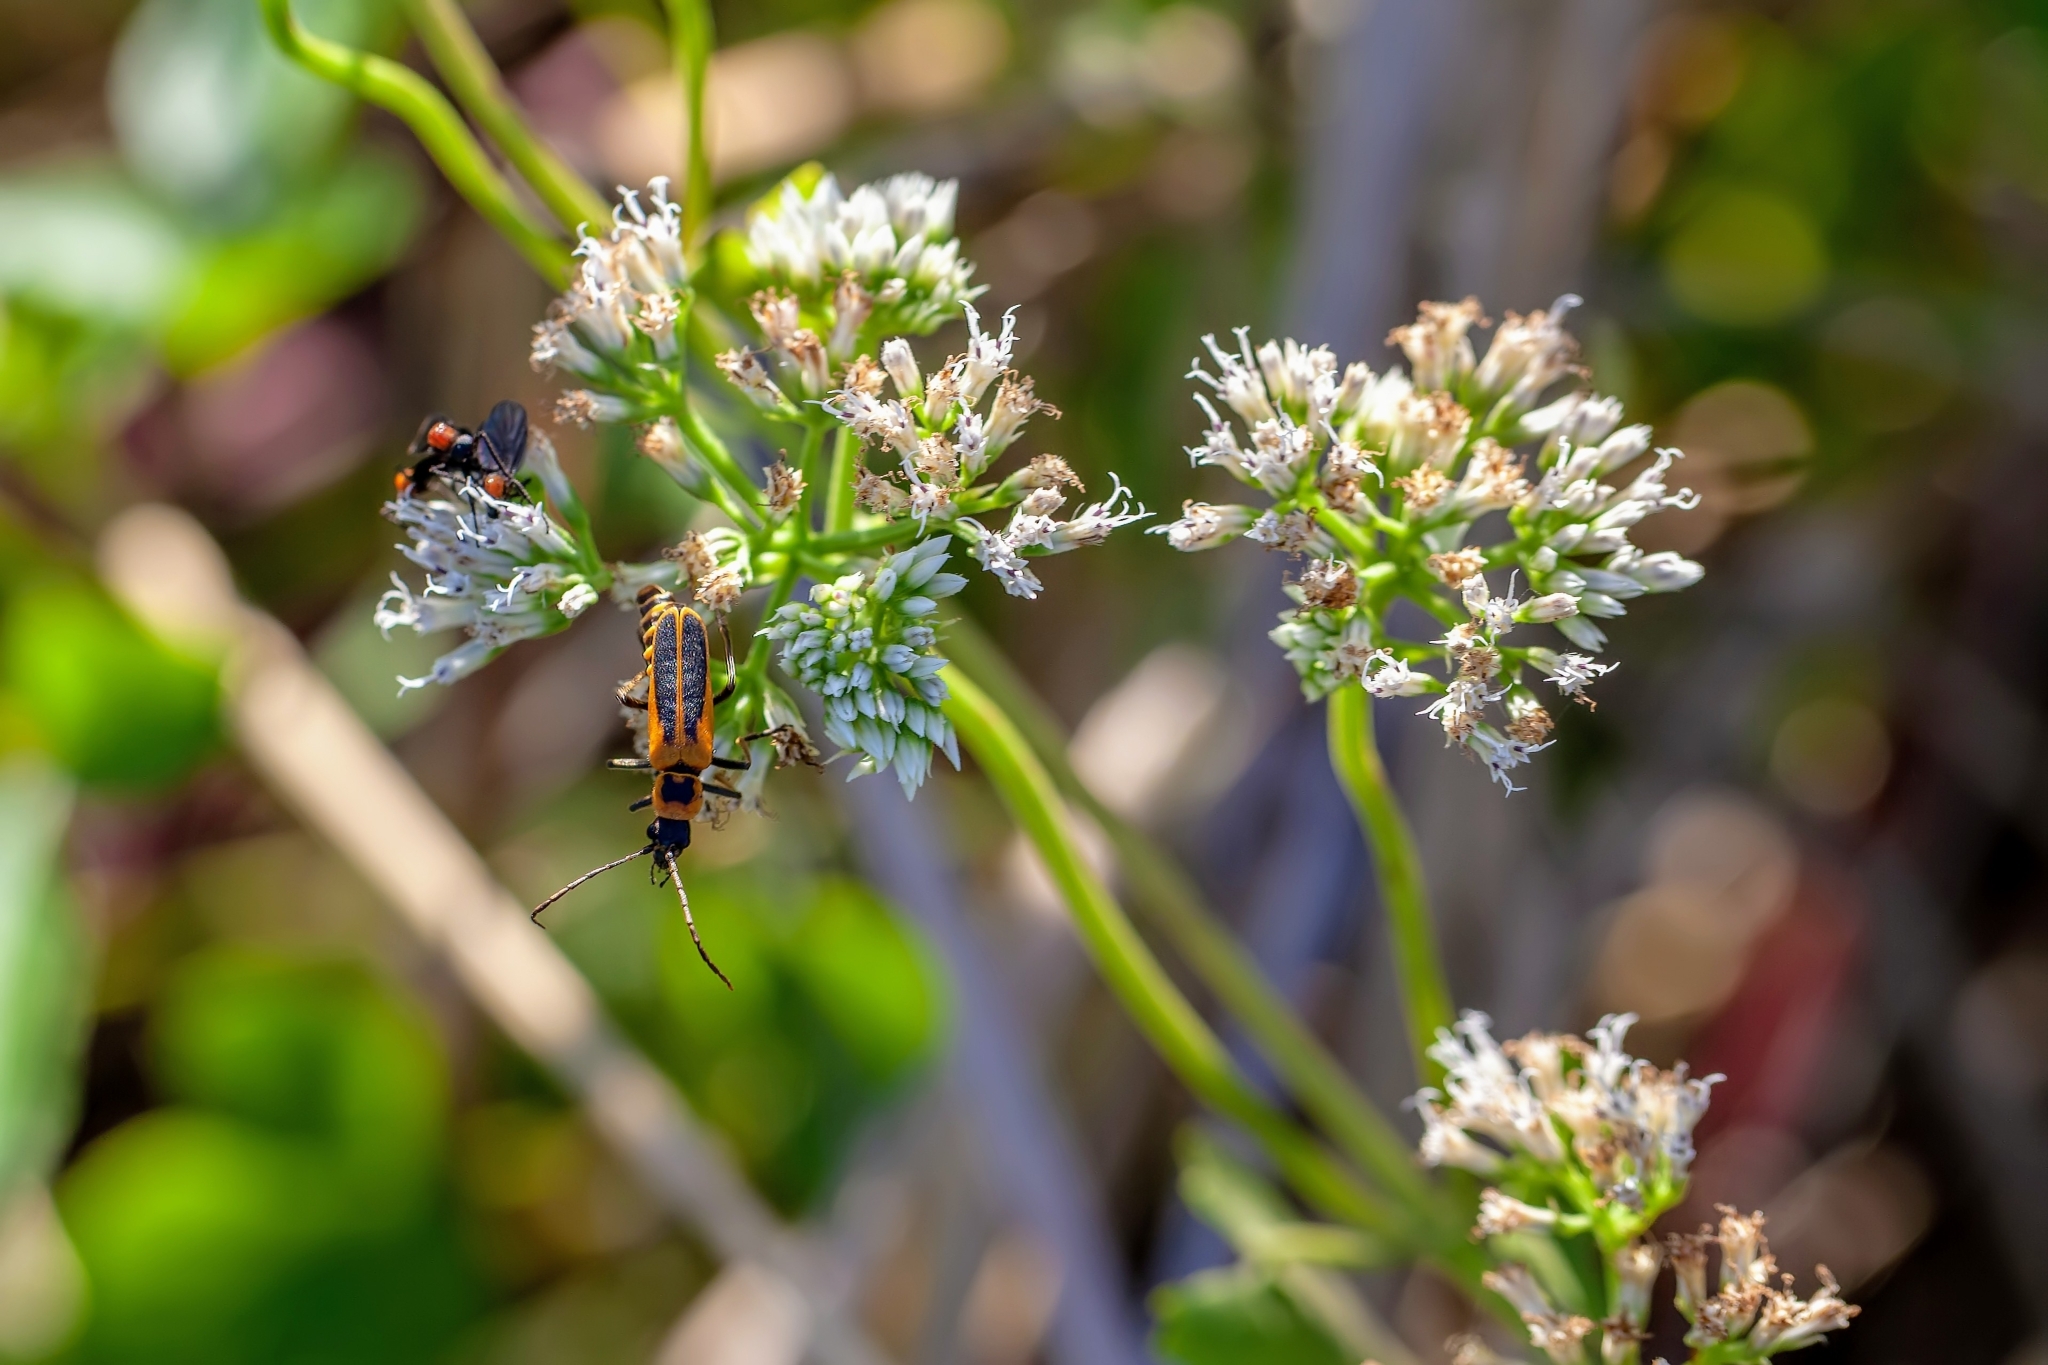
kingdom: Animalia
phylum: Arthropoda
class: Insecta
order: Coleoptera
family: Cantharidae
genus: Chauliognathus
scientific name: Chauliognathus pensylvanicus
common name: Goldenrod soldier beetle
